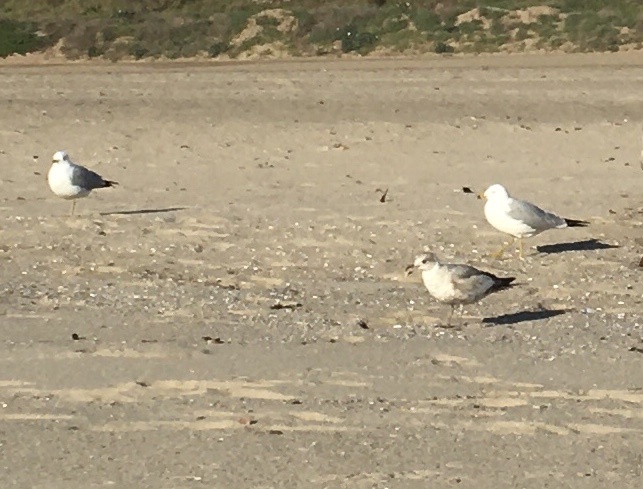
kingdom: Animalia
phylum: Chordata
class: Aves
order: Charadriiformes
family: Laridae
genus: Larus
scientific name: Larus delawarensis
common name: Ring-billed gull
